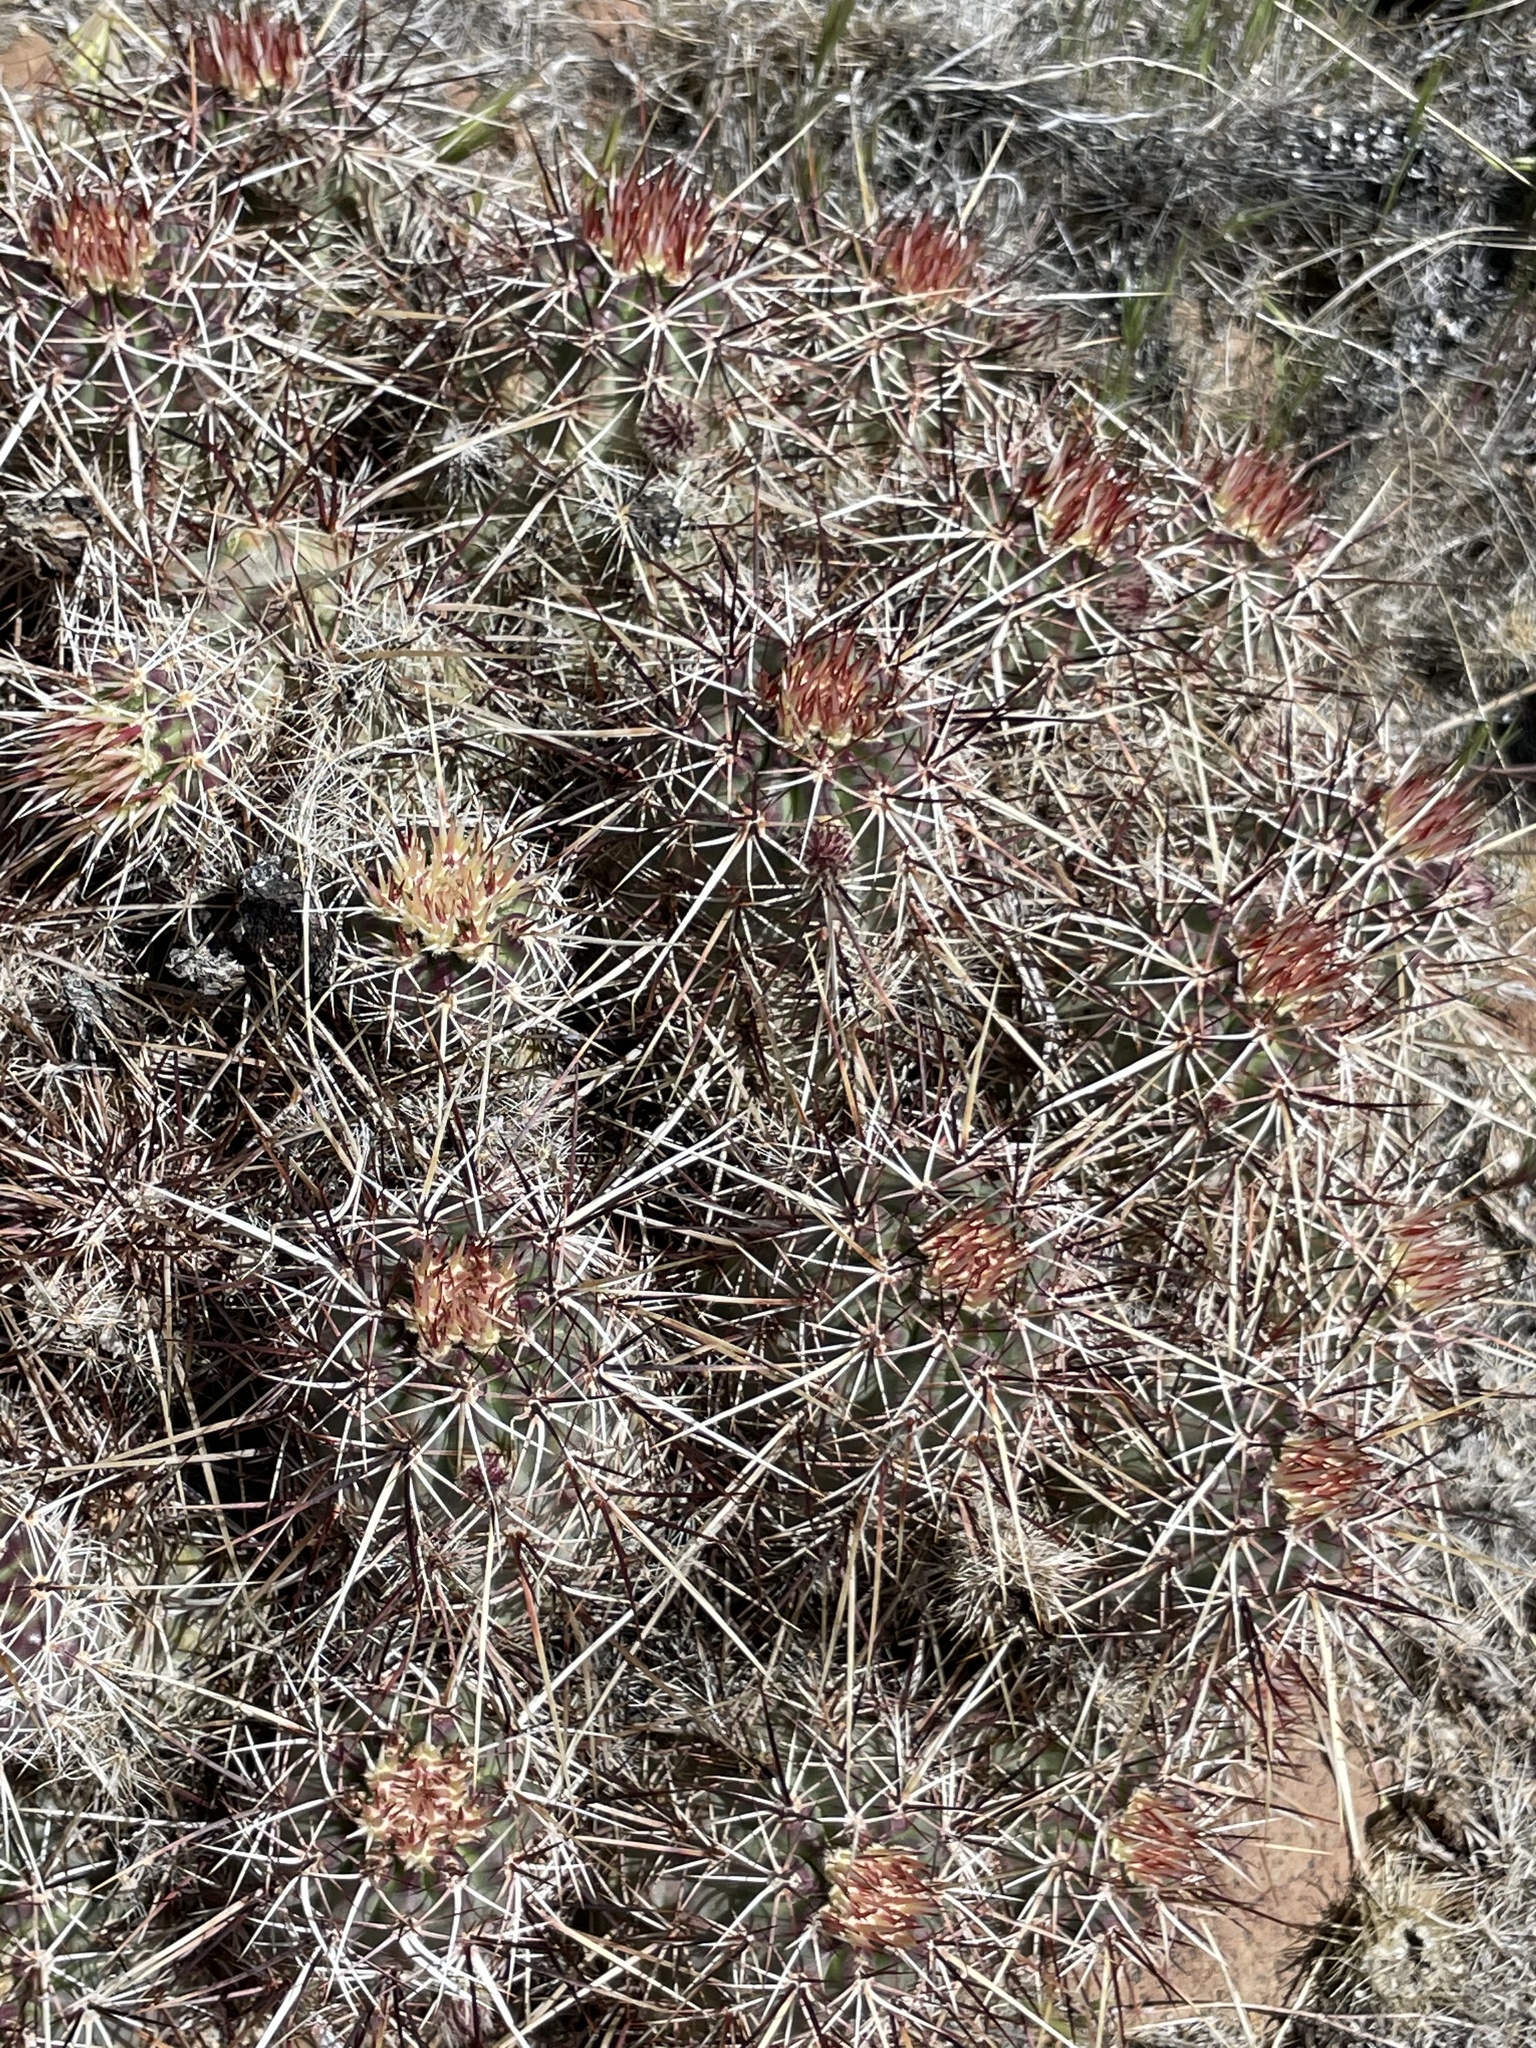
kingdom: Plantae
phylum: Tracheophyta
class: Magnoliopsida
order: Caryophyllales
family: Cactaceae
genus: Echinocereus
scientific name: Echinocereus engelmannii
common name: Engelmann's hedgehog cactus
